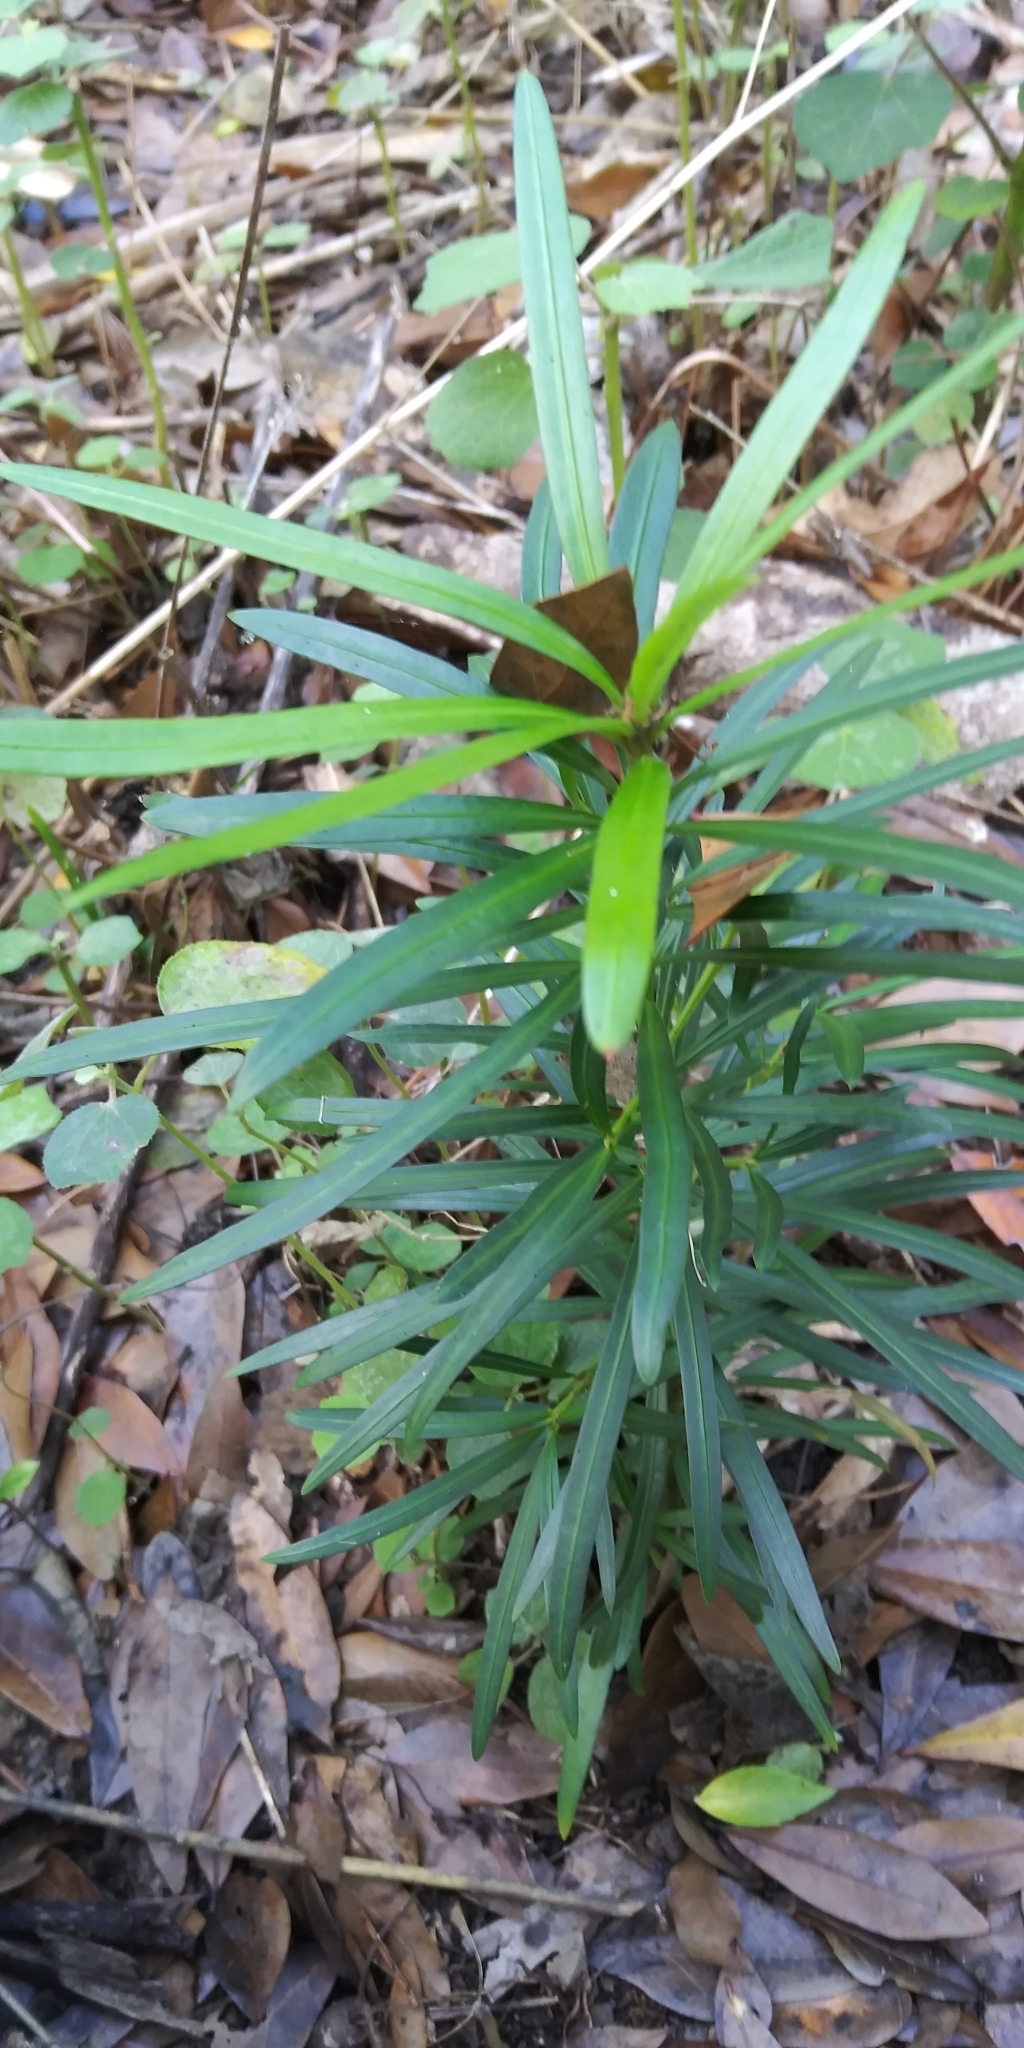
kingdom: Plantae
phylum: Tracheophyta
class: Pinopsida
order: Pinales
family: Podocarpaceae
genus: Podocarpus
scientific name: Podocarpus macrophyllus
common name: Japanese yew
